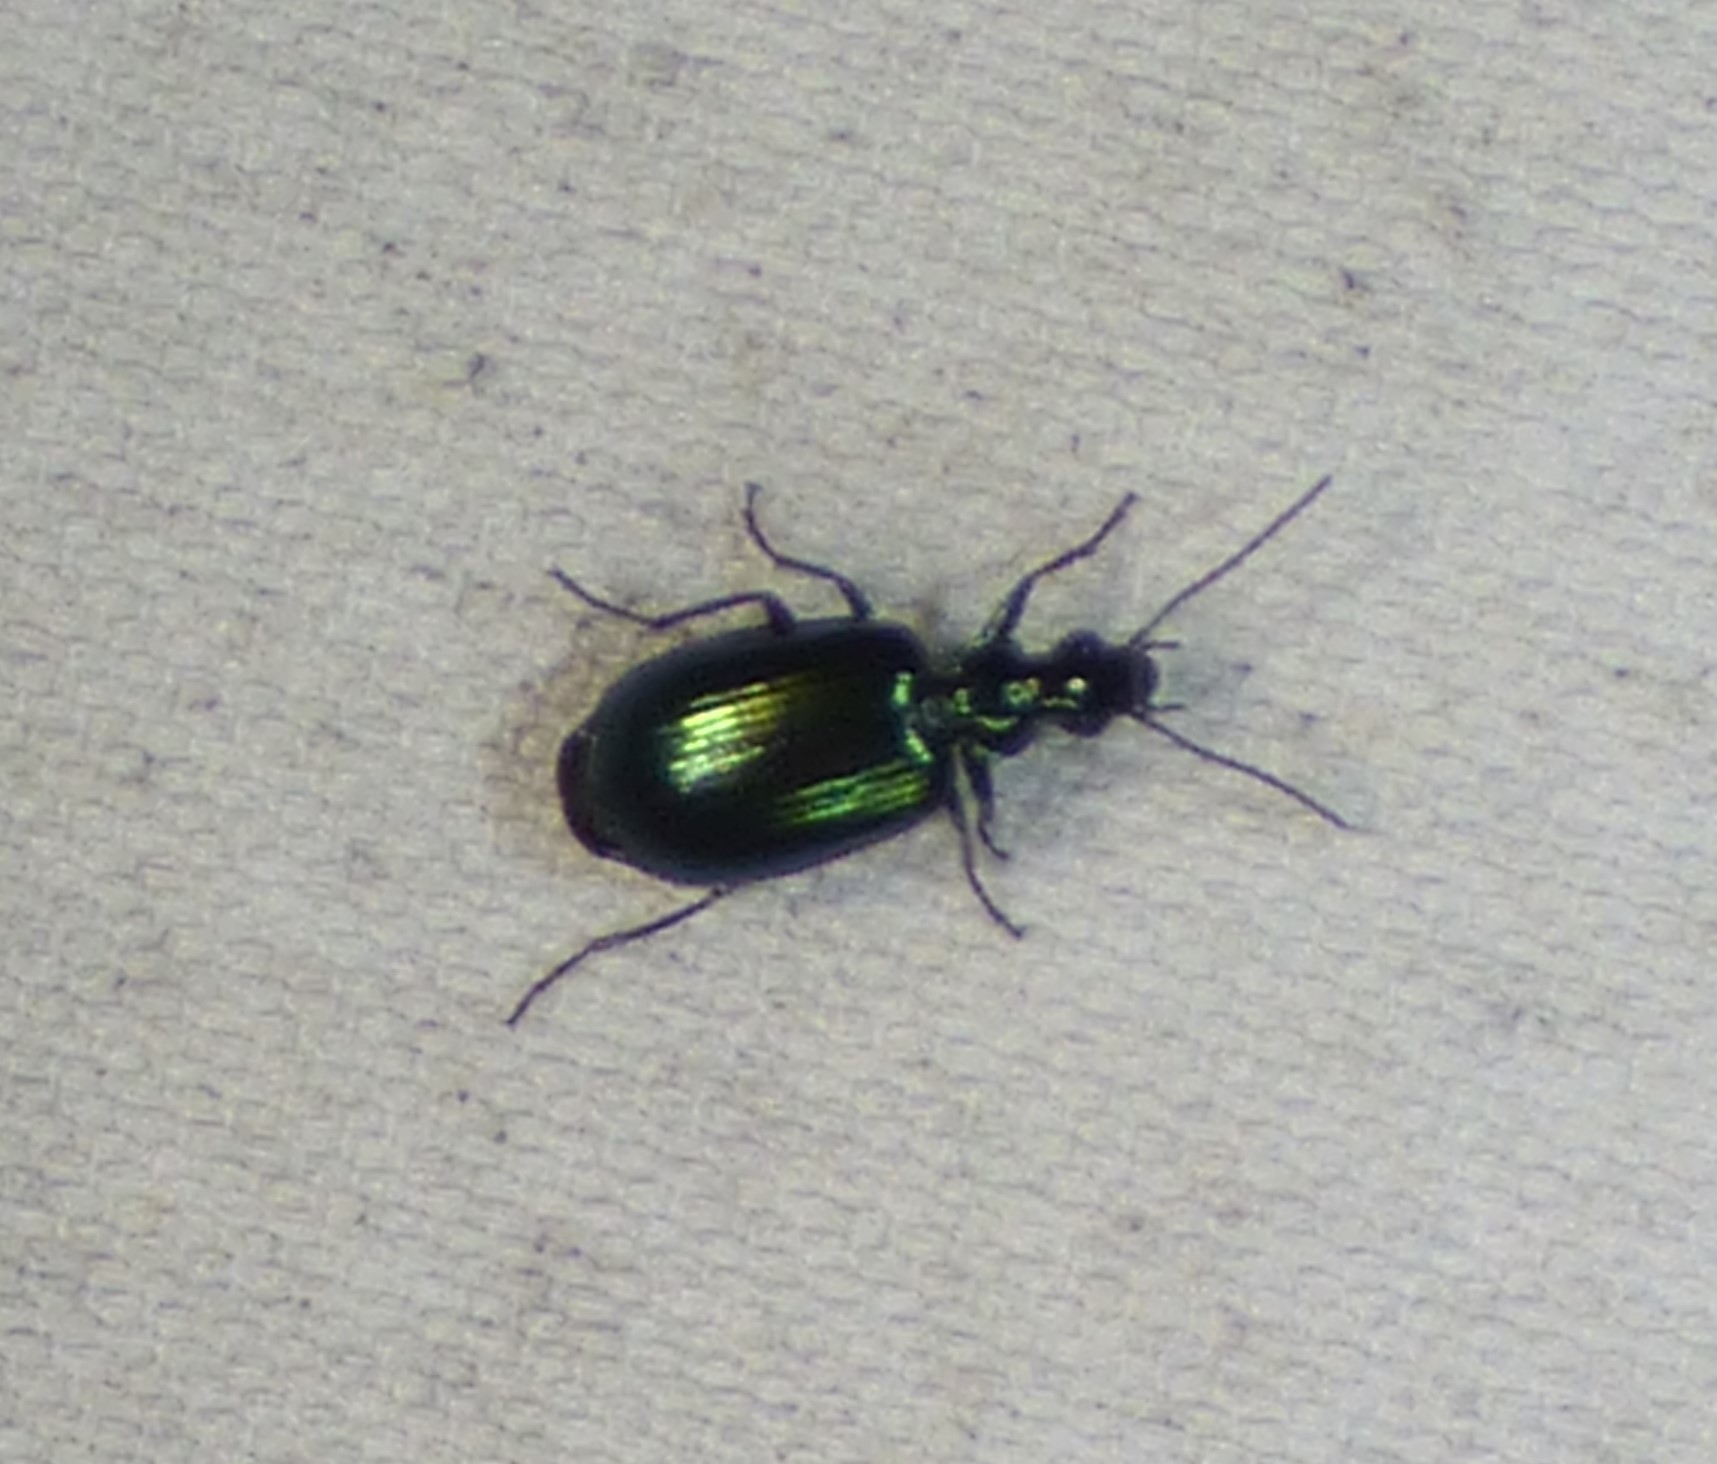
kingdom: Animalia
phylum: Arthropoda
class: Insecta
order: Coleoptera
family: Carabidae
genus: Lebia
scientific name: Lebia viridis
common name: Flower lebia beetle
